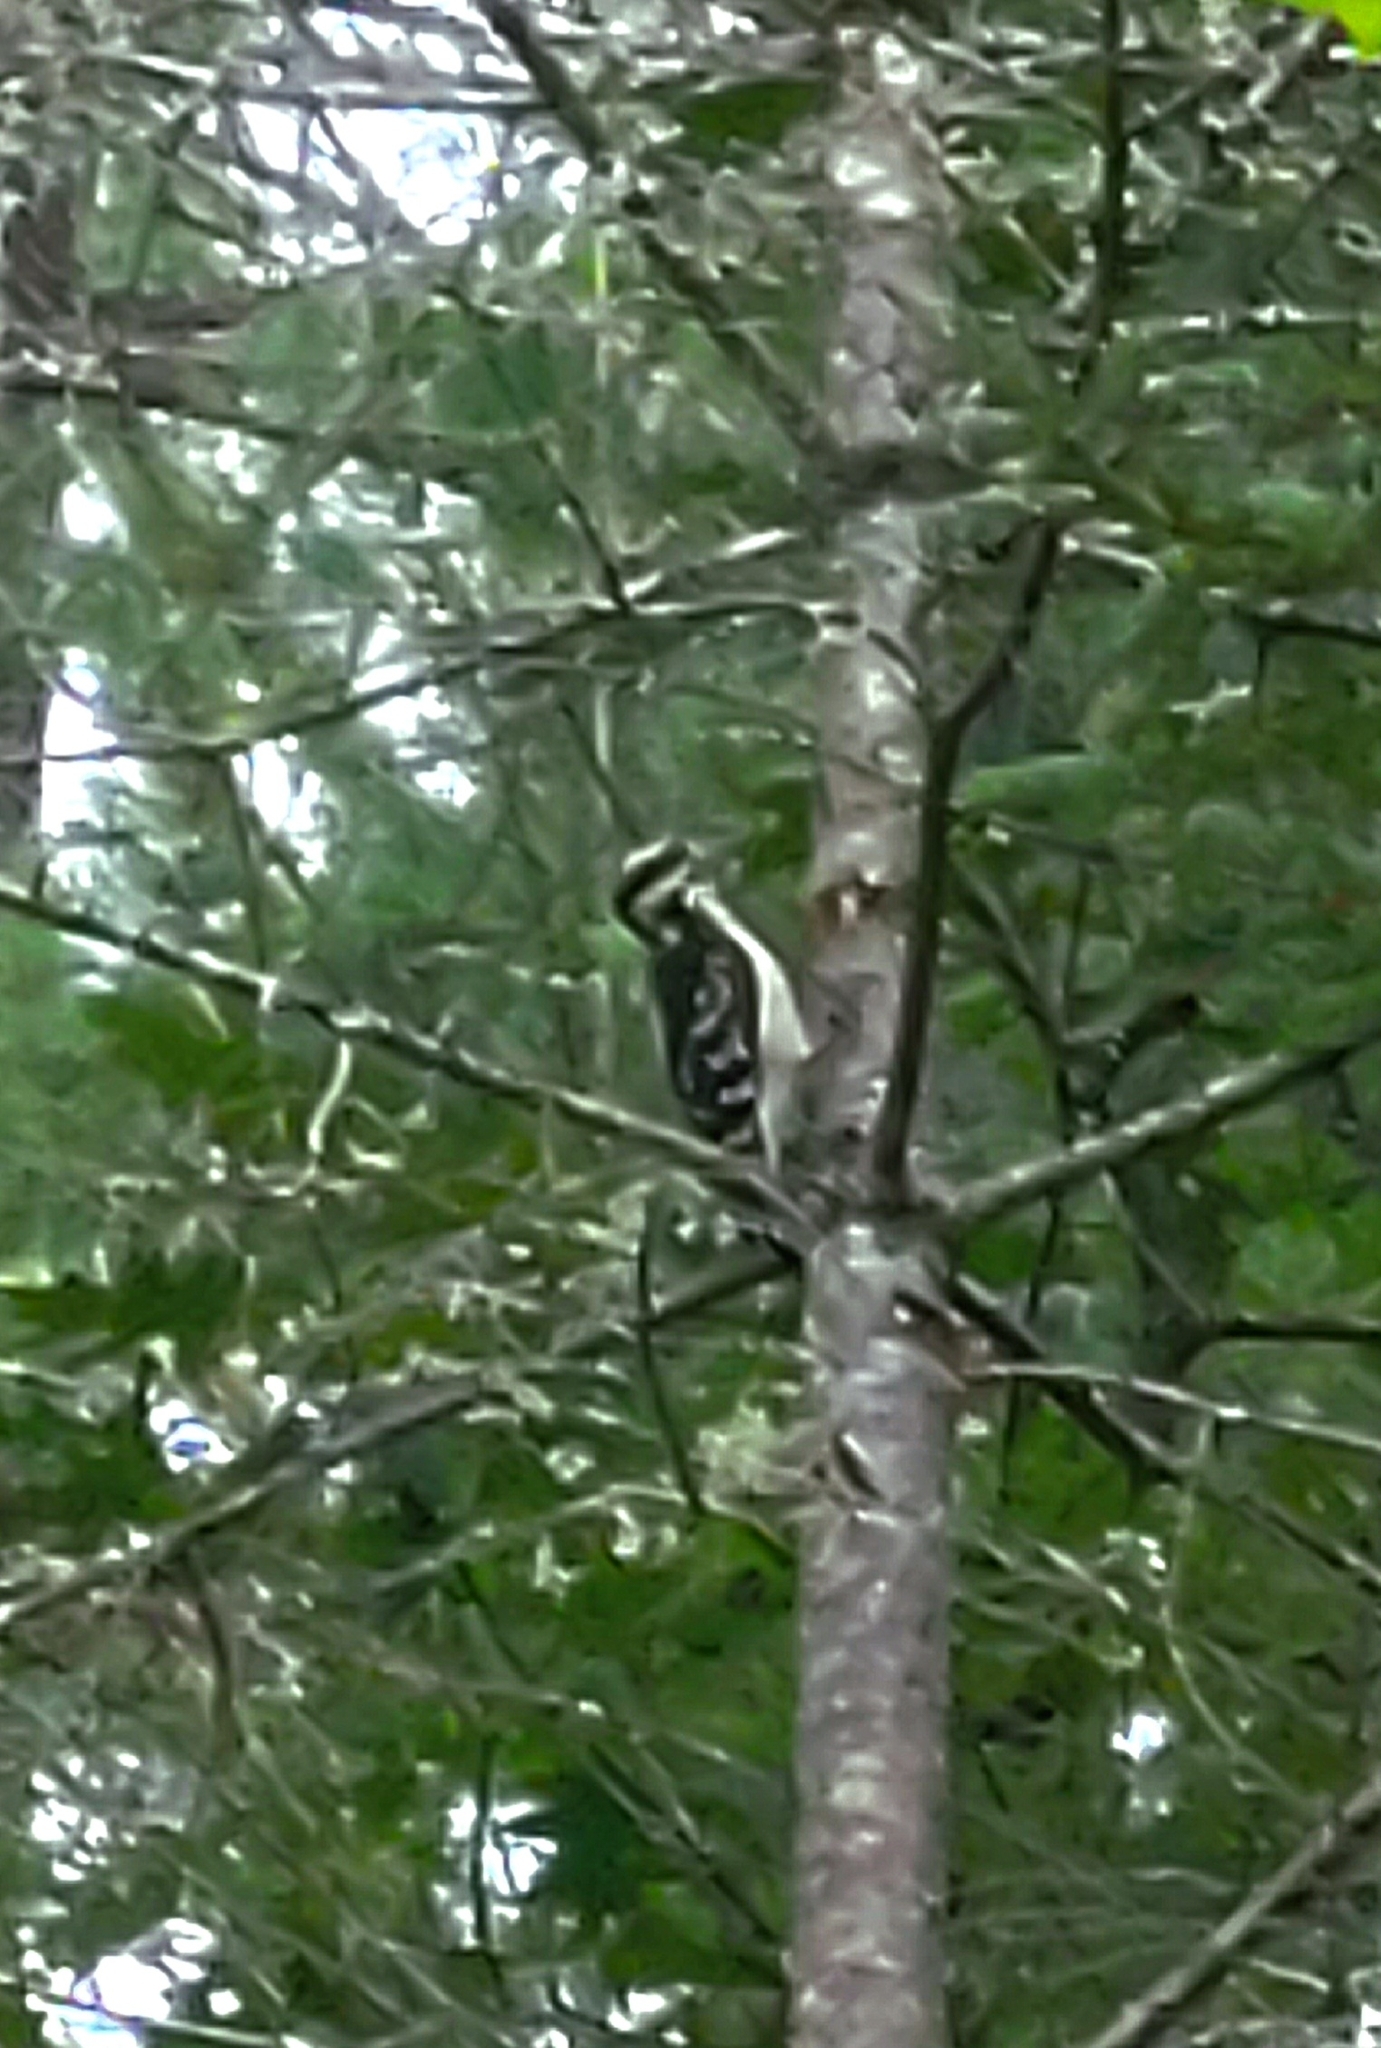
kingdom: Animalia
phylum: Chordata
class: Aves
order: Piciformes
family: Picidae
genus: Dryobates
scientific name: Dryobates pubescens
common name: Downy woodpecker
